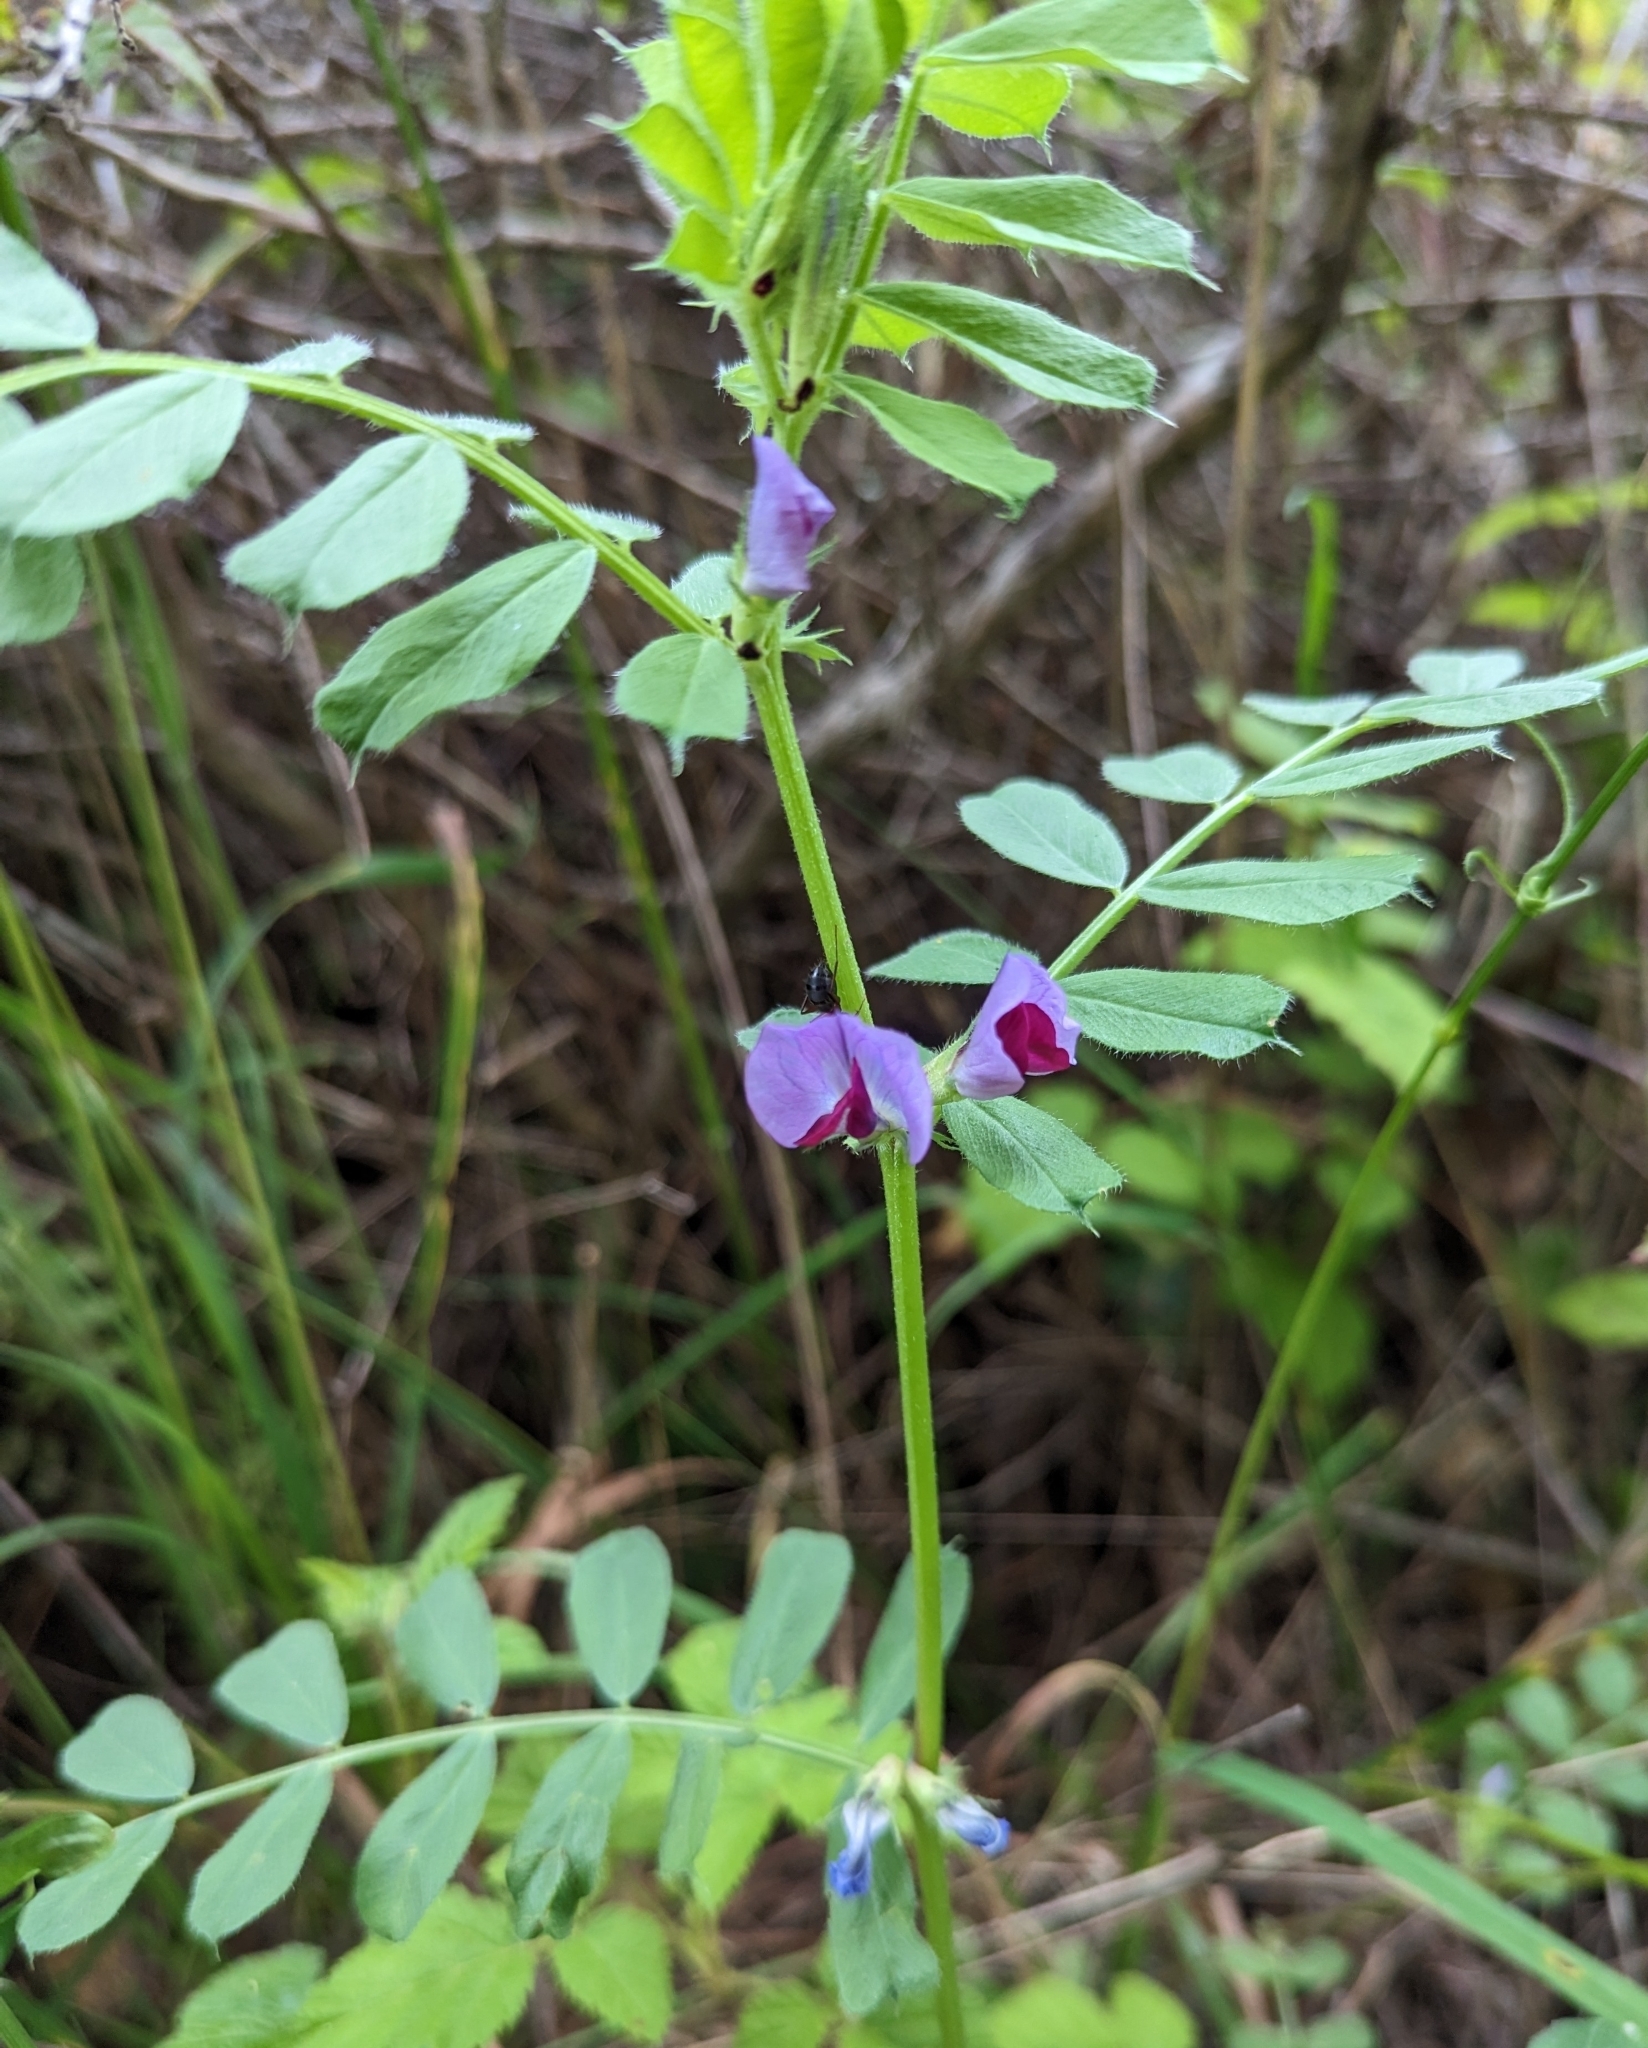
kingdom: Plantae
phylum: Tracheophyta
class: Magnoliopsida
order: Fabales
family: Fabaceae
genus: Vicia
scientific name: Vicia sativa
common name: Garden vetch
